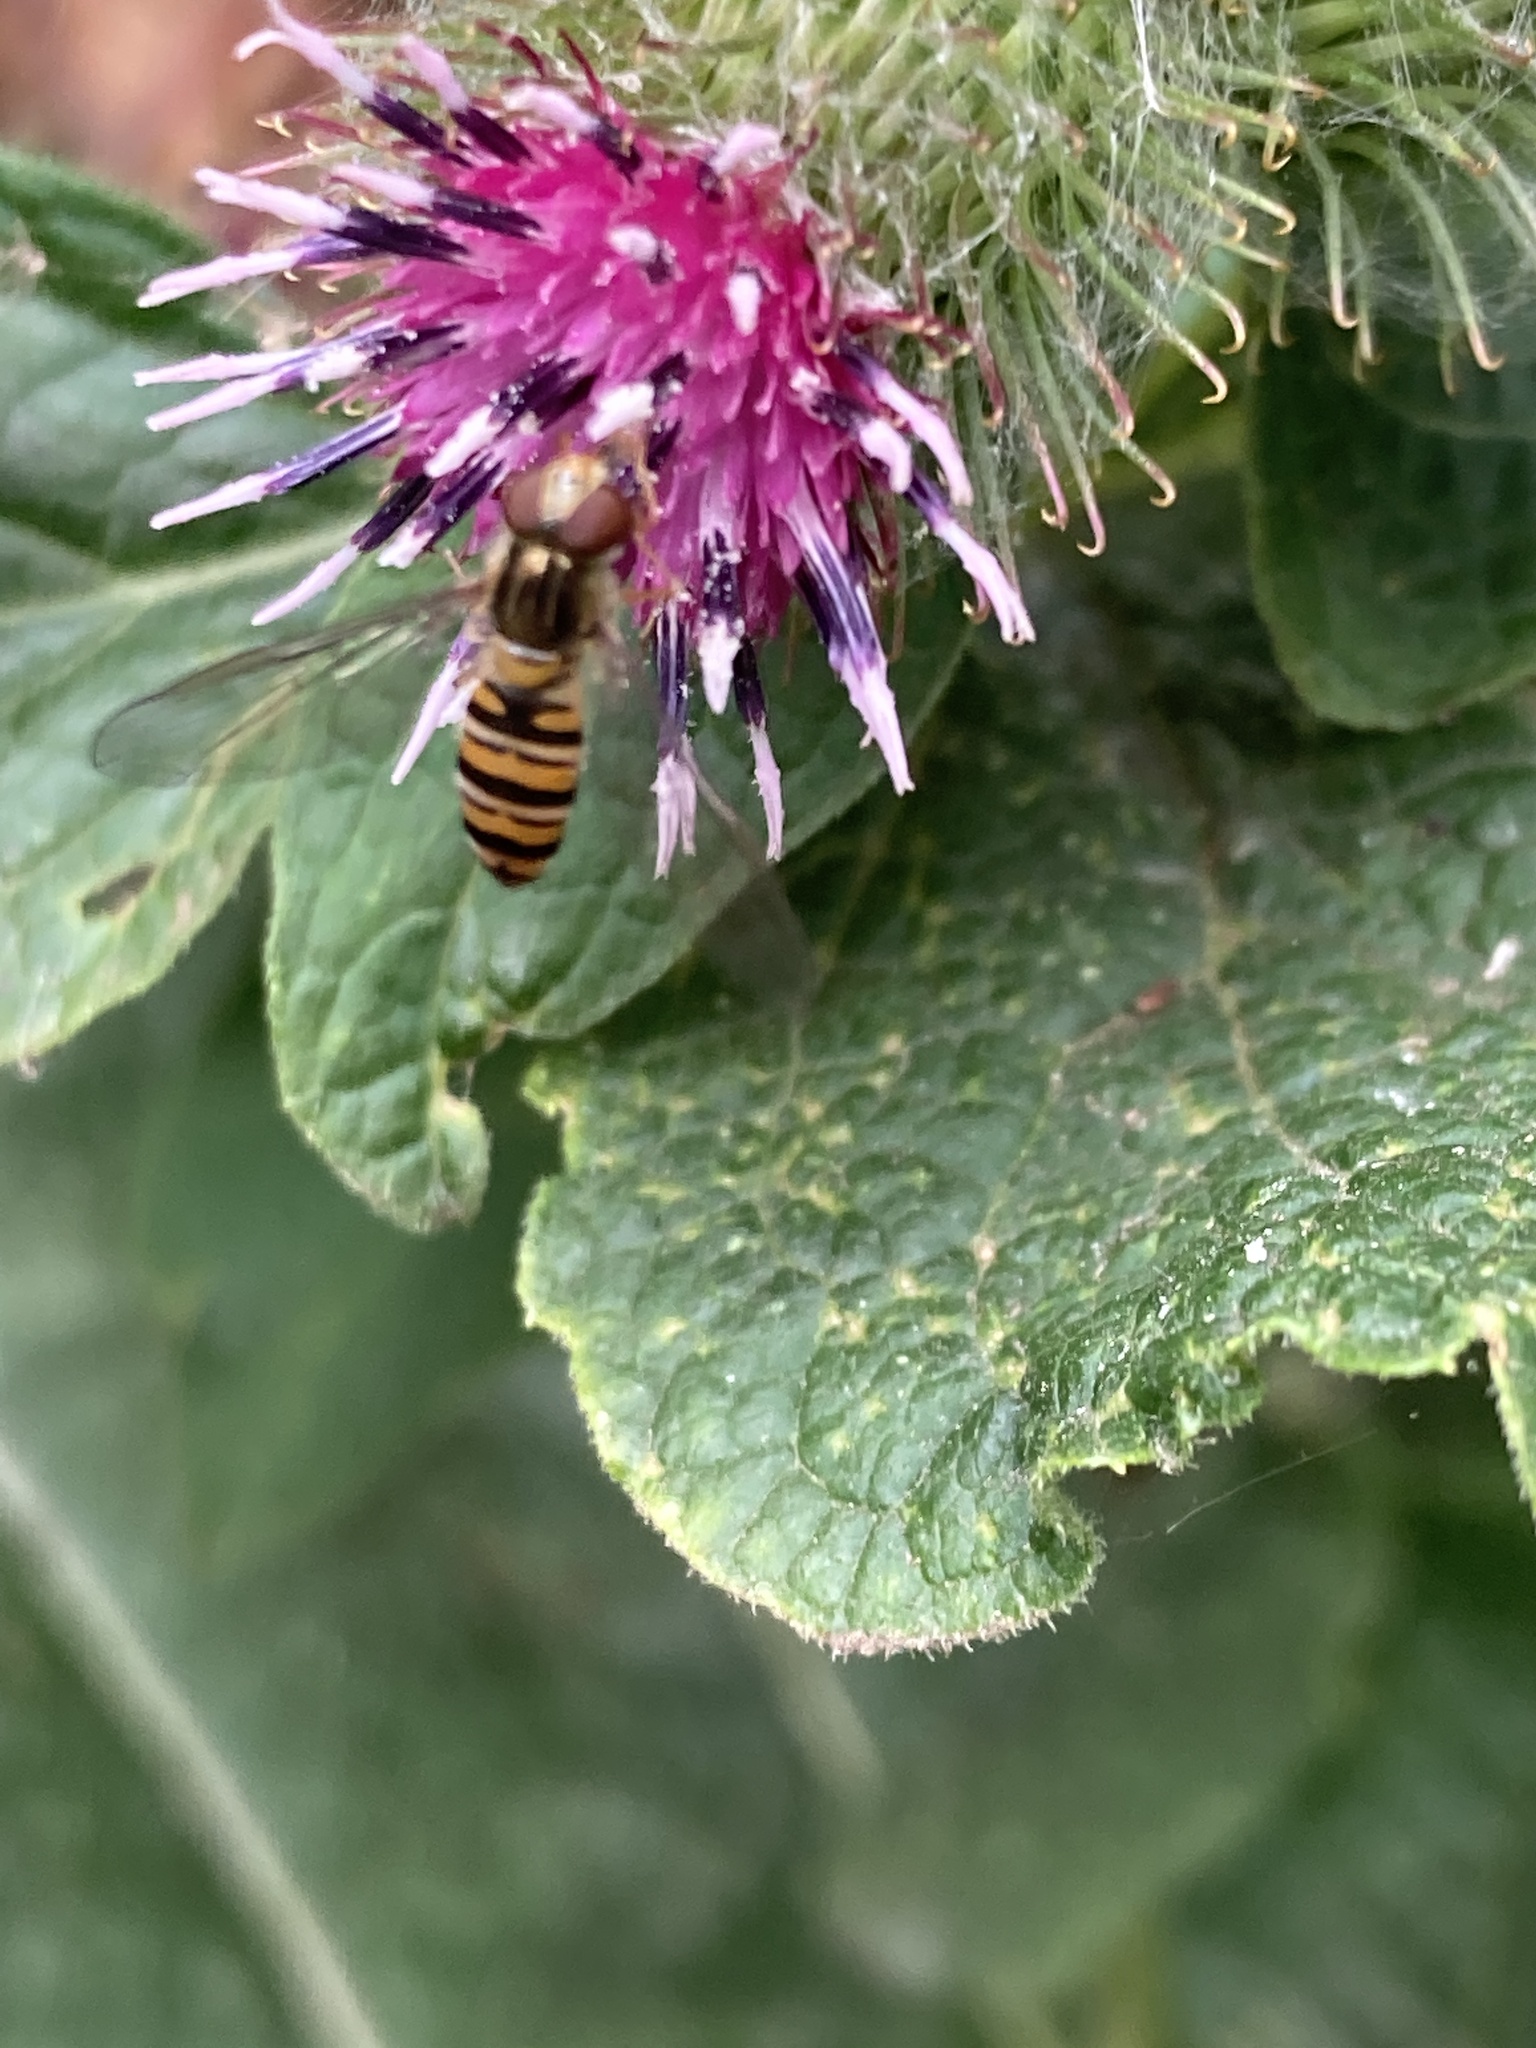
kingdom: Animalia
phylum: Arthropoda
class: Insecta
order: Diptera
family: Syrphidae
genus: Episyrphus
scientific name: Episyrphus balteatus
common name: Marmalade hoverfly
